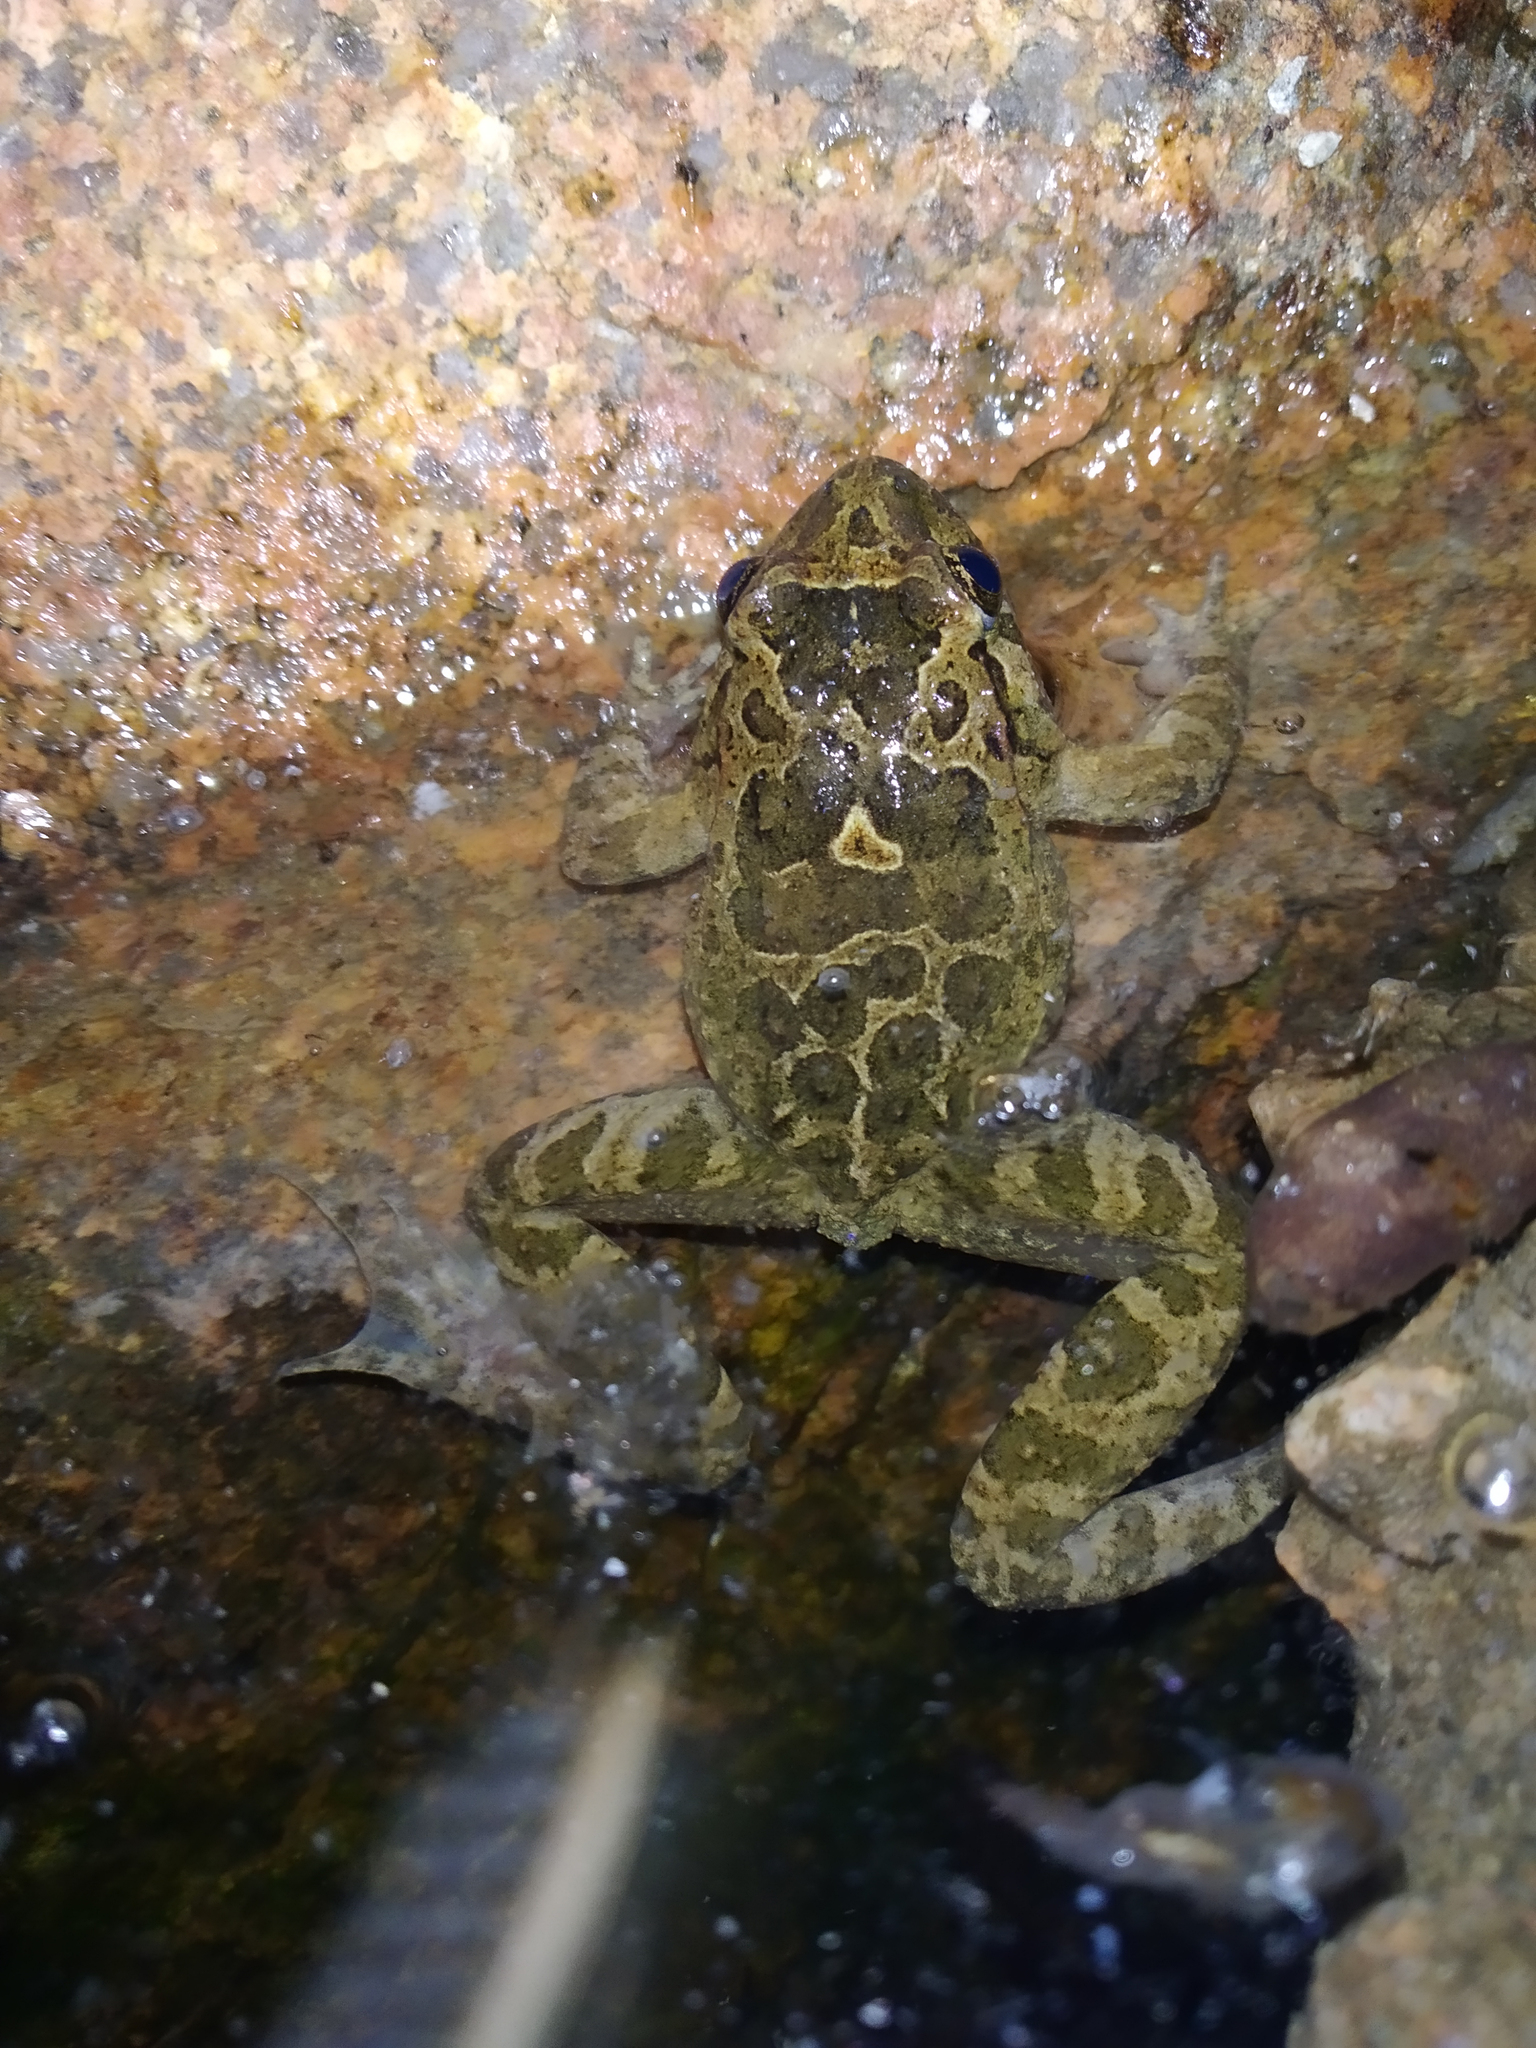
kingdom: Animalia
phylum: Chordata
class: Amphibia
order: Anura
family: Alytidae
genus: Discoglossus
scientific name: Discoglossus sardus
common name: Sardinia painted frog
